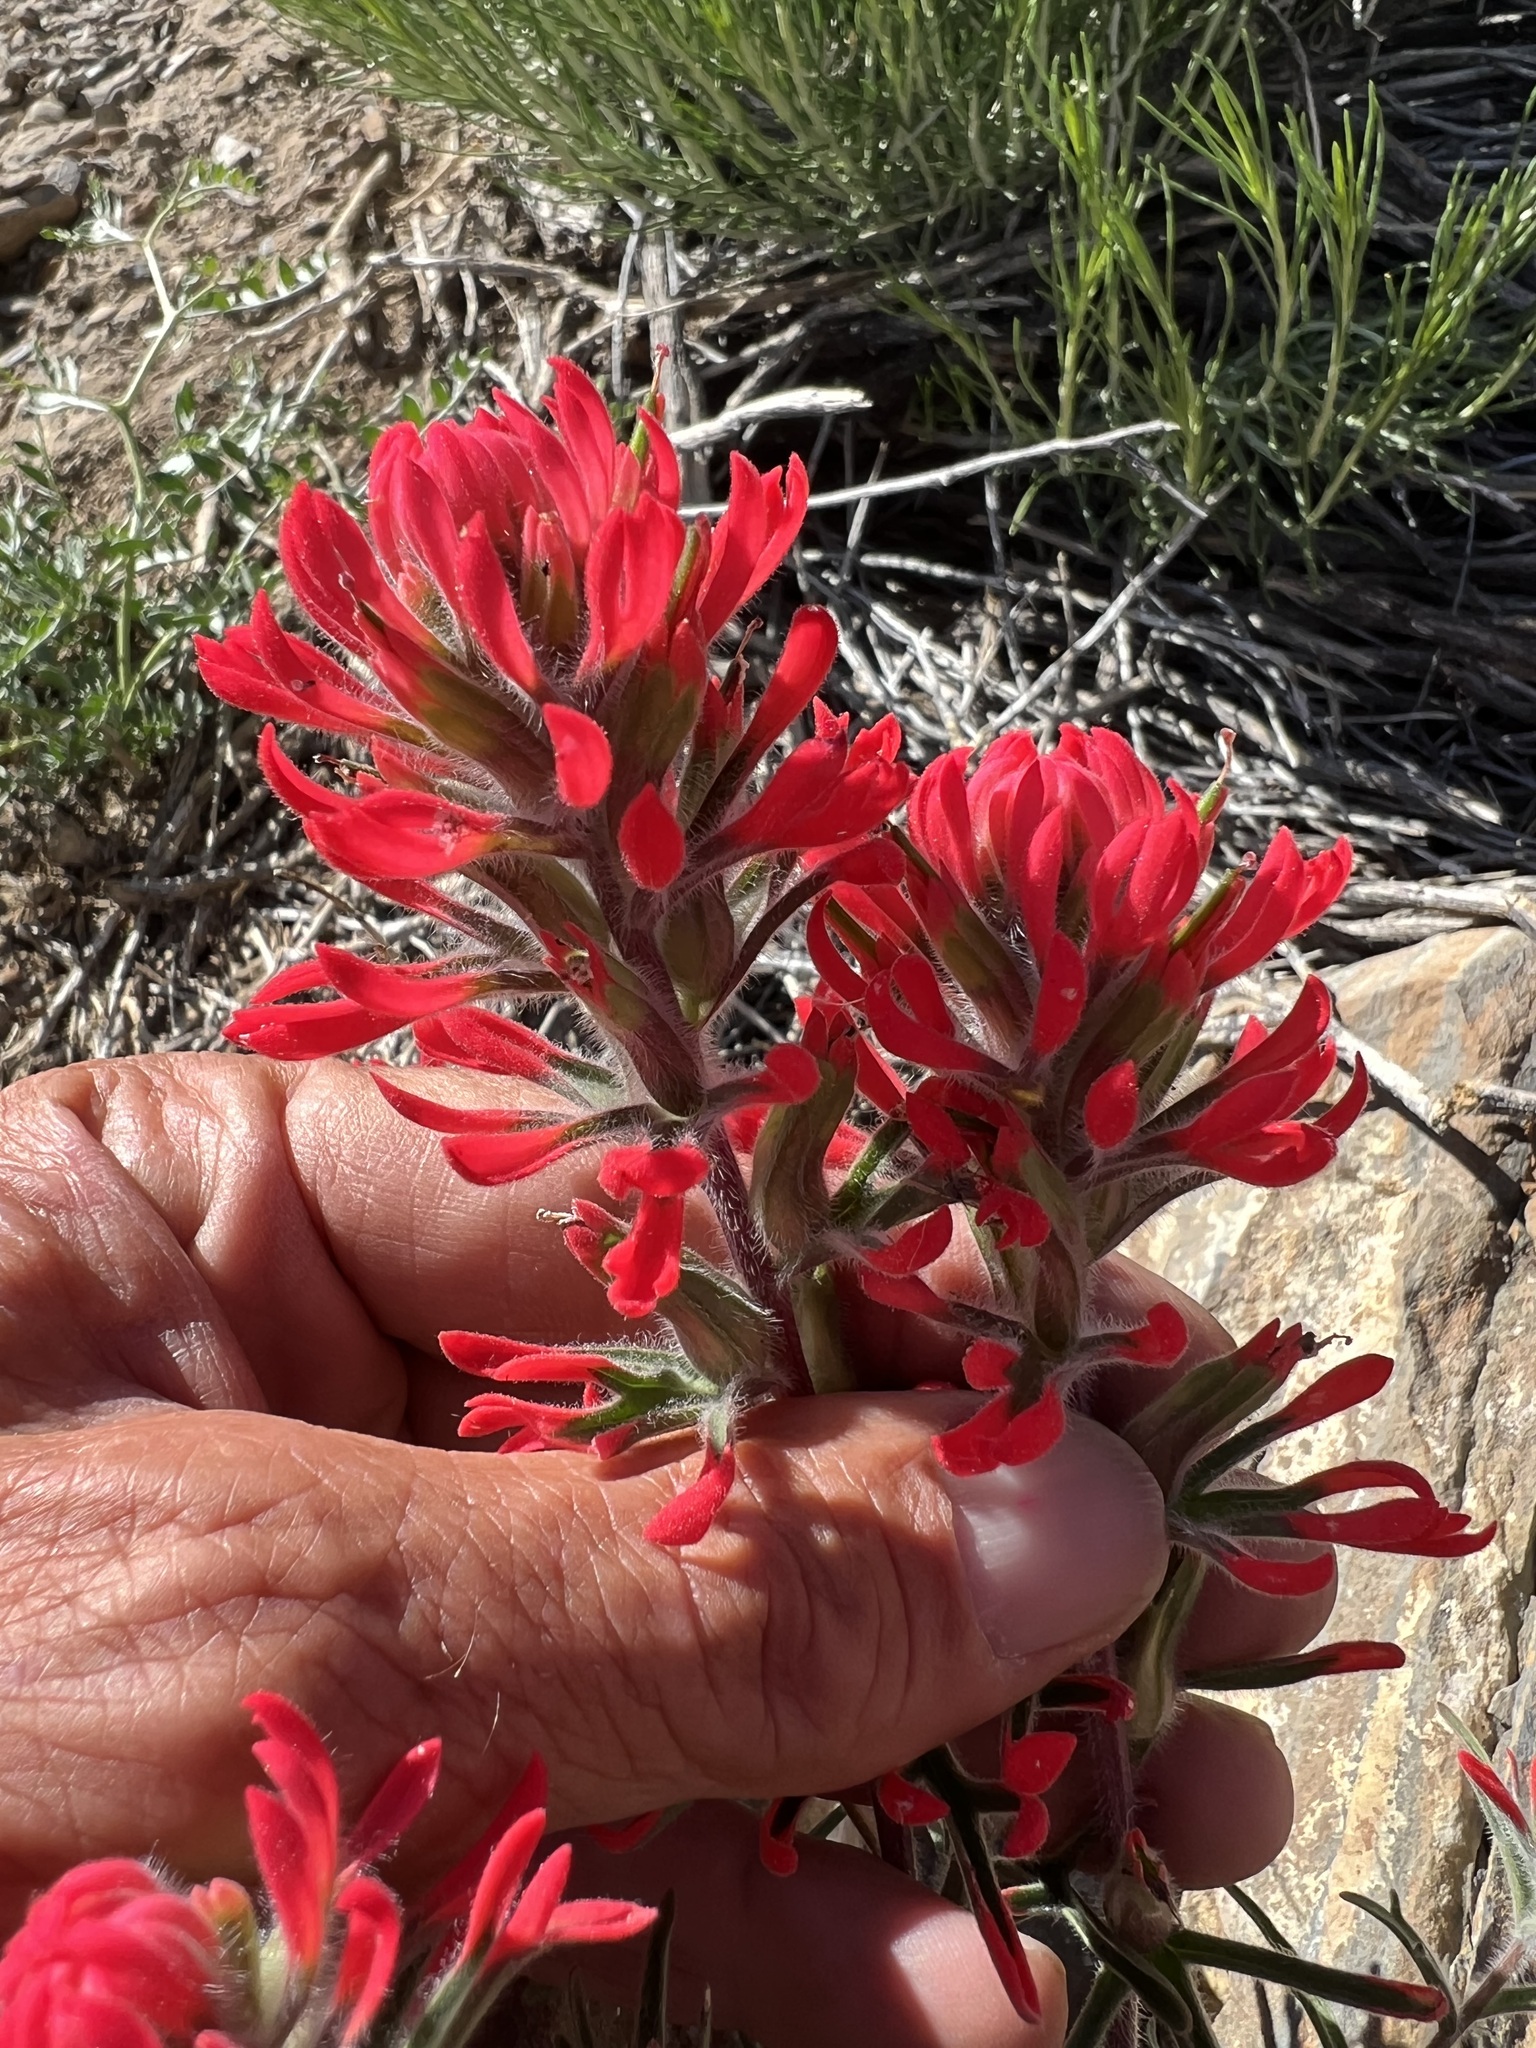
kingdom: Plantae
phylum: Tracheophyta
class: Magnoliopsida
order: Lamiales
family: Orobanchaceae
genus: Castilleja
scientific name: Castilleja chromosa
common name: Desert paintbrush
